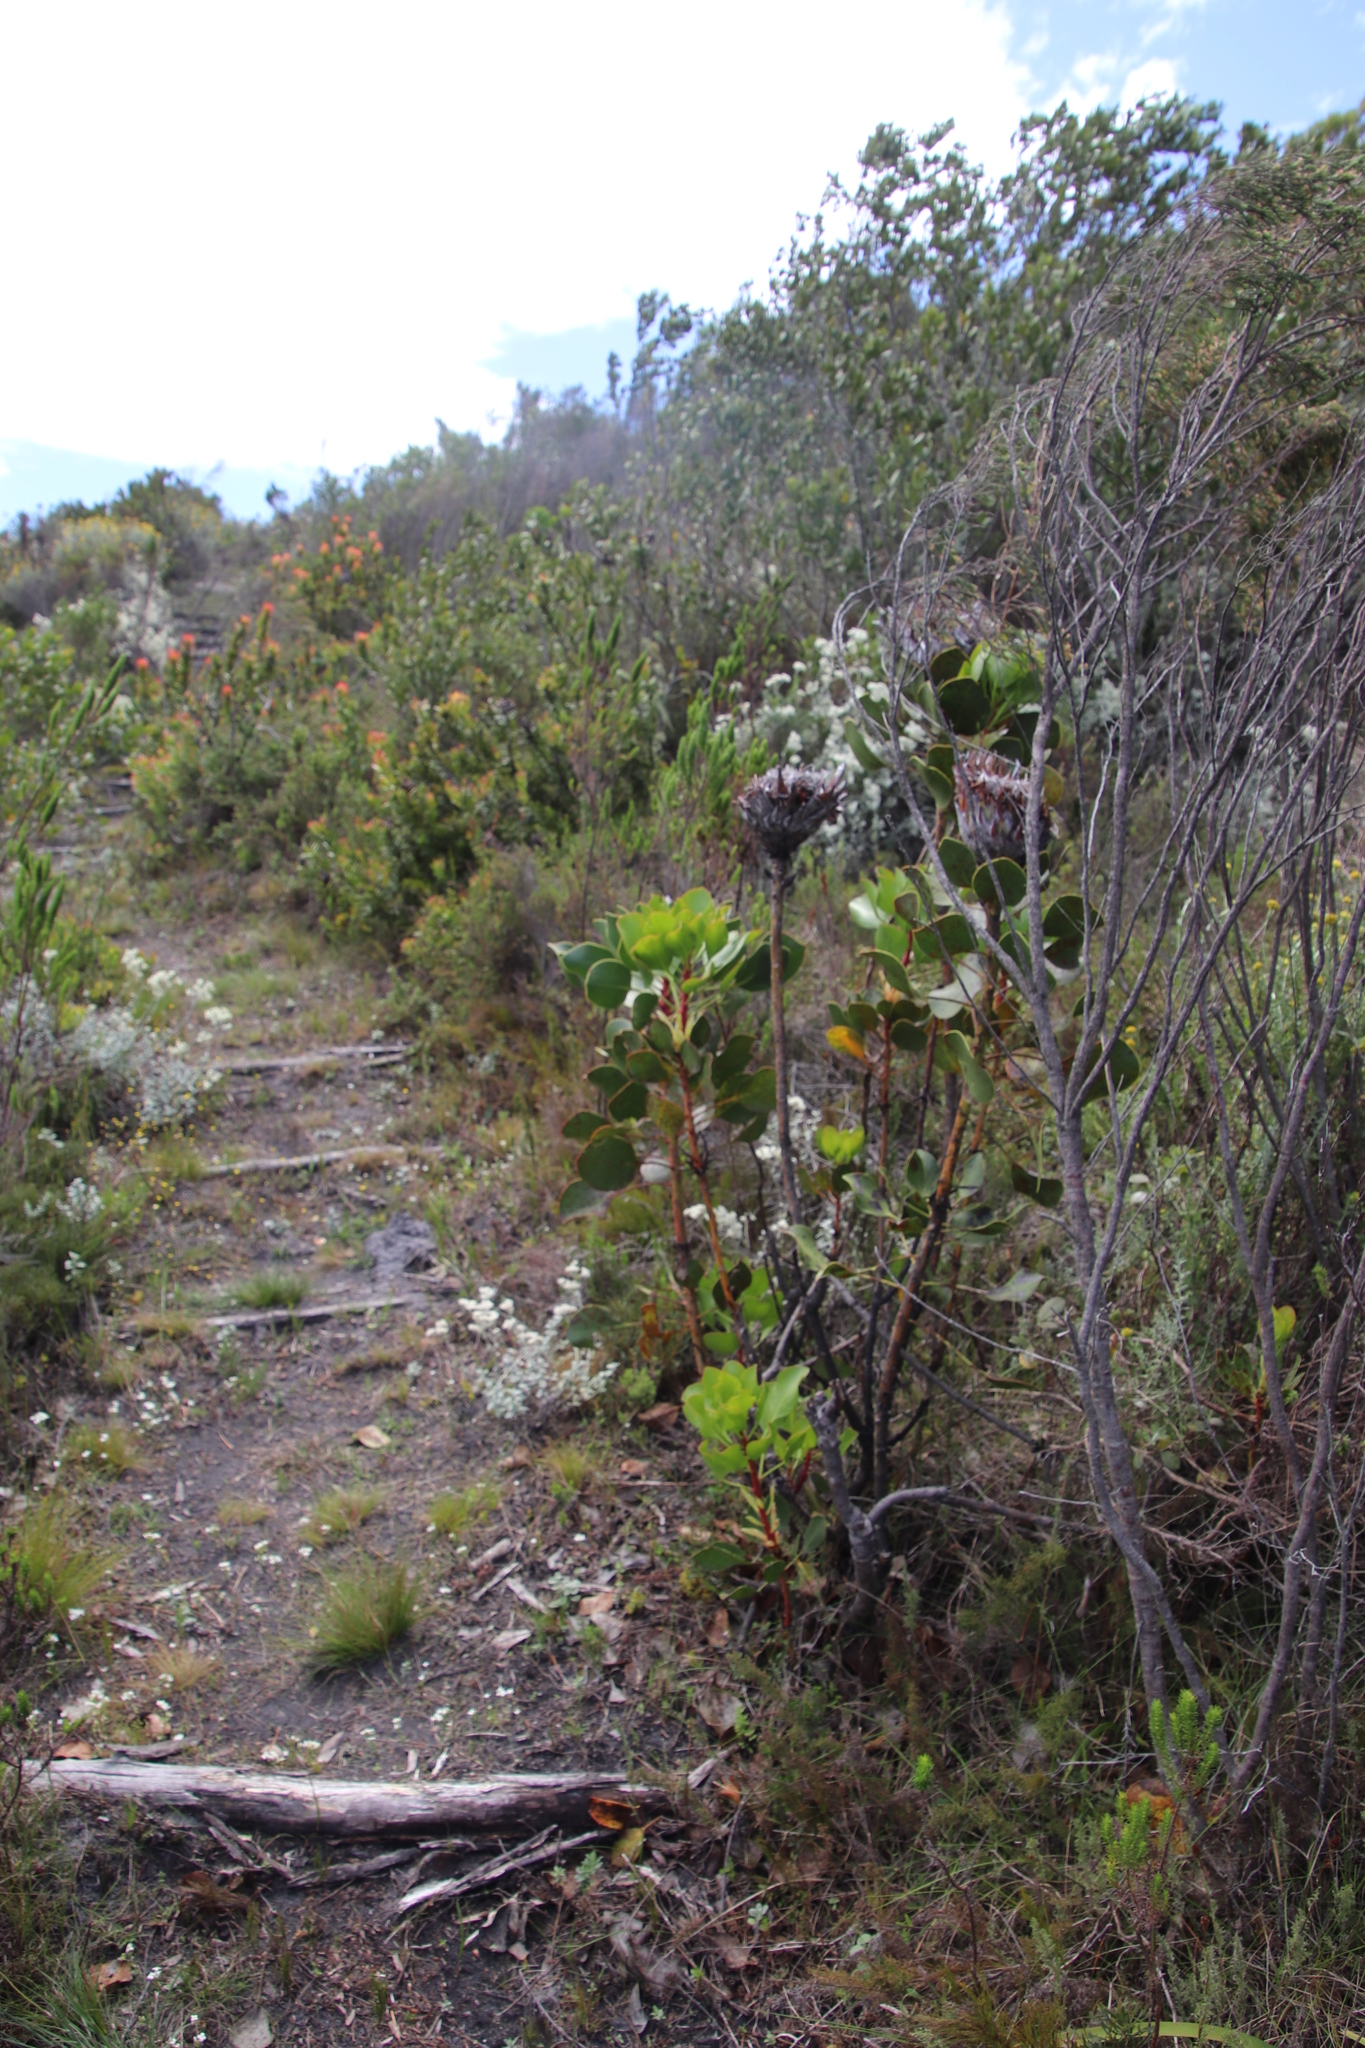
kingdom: Plantae
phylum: Tracheophyta
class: Magnoliopsida
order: Proteales
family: Proteaceae
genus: Protea
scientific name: Protea cynaroides
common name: King protea
